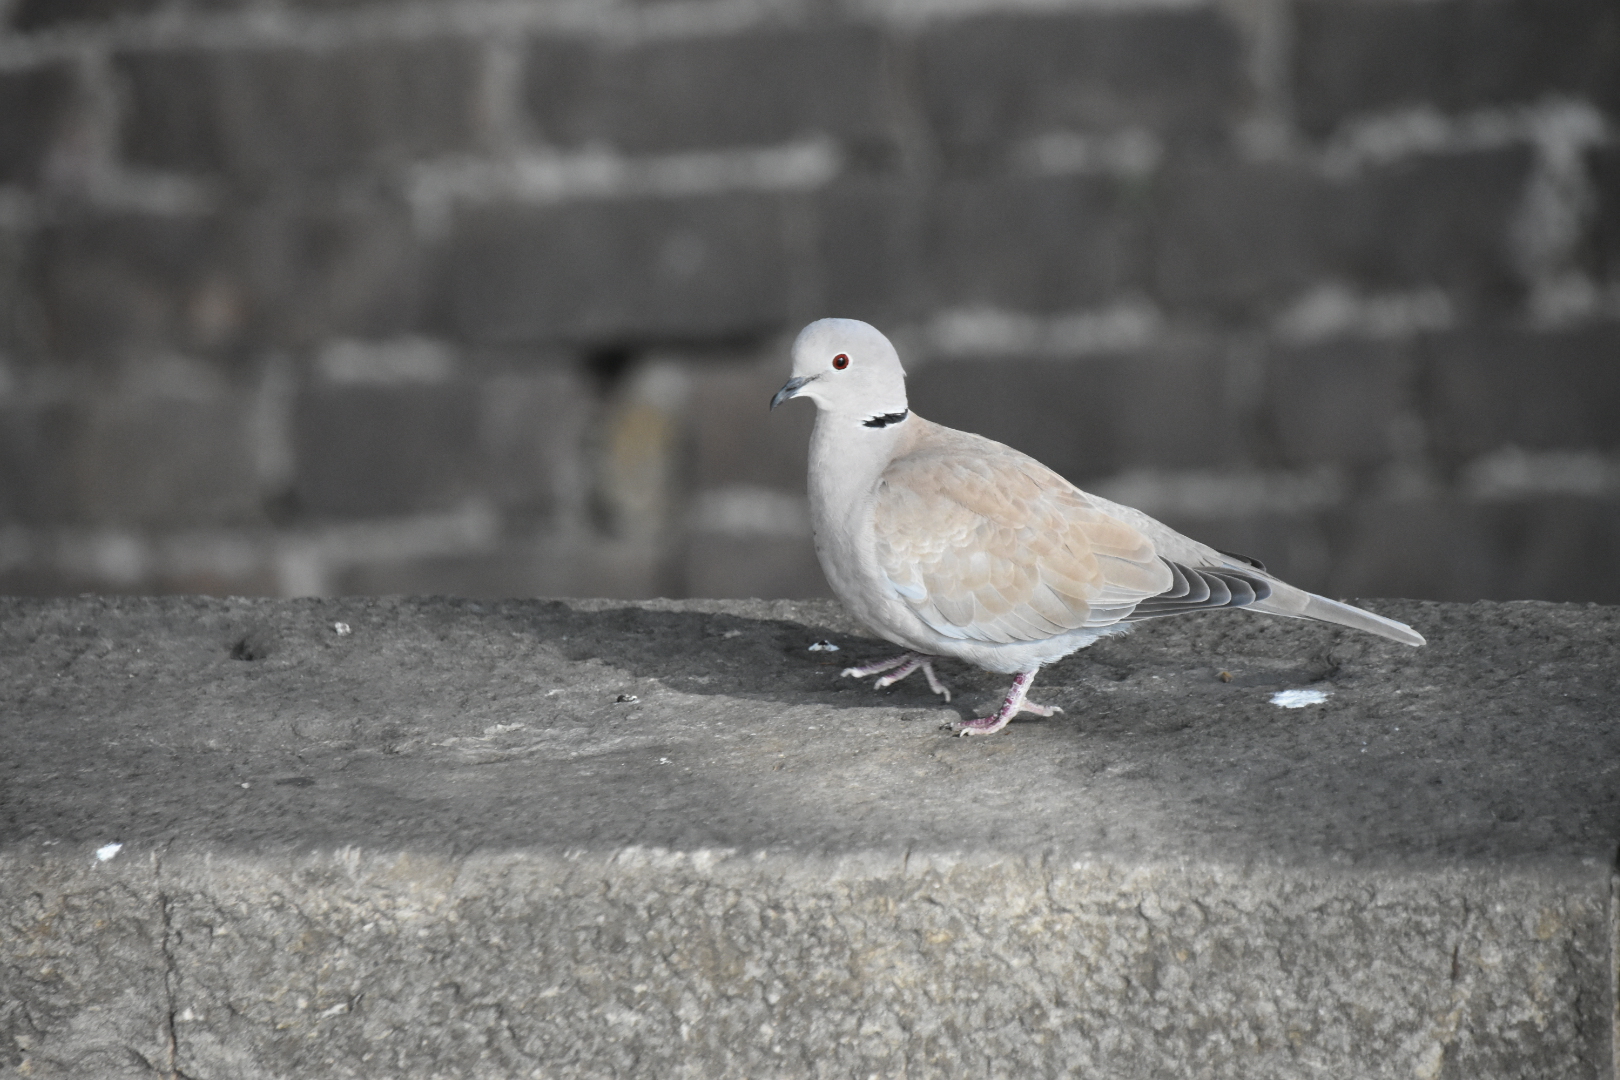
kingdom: Animalia
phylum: Chordata
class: Aves
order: Columbiformes
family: Columbidae
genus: Streptopelia
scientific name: Streptopelia decaocto
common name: Eurasian collared dove
